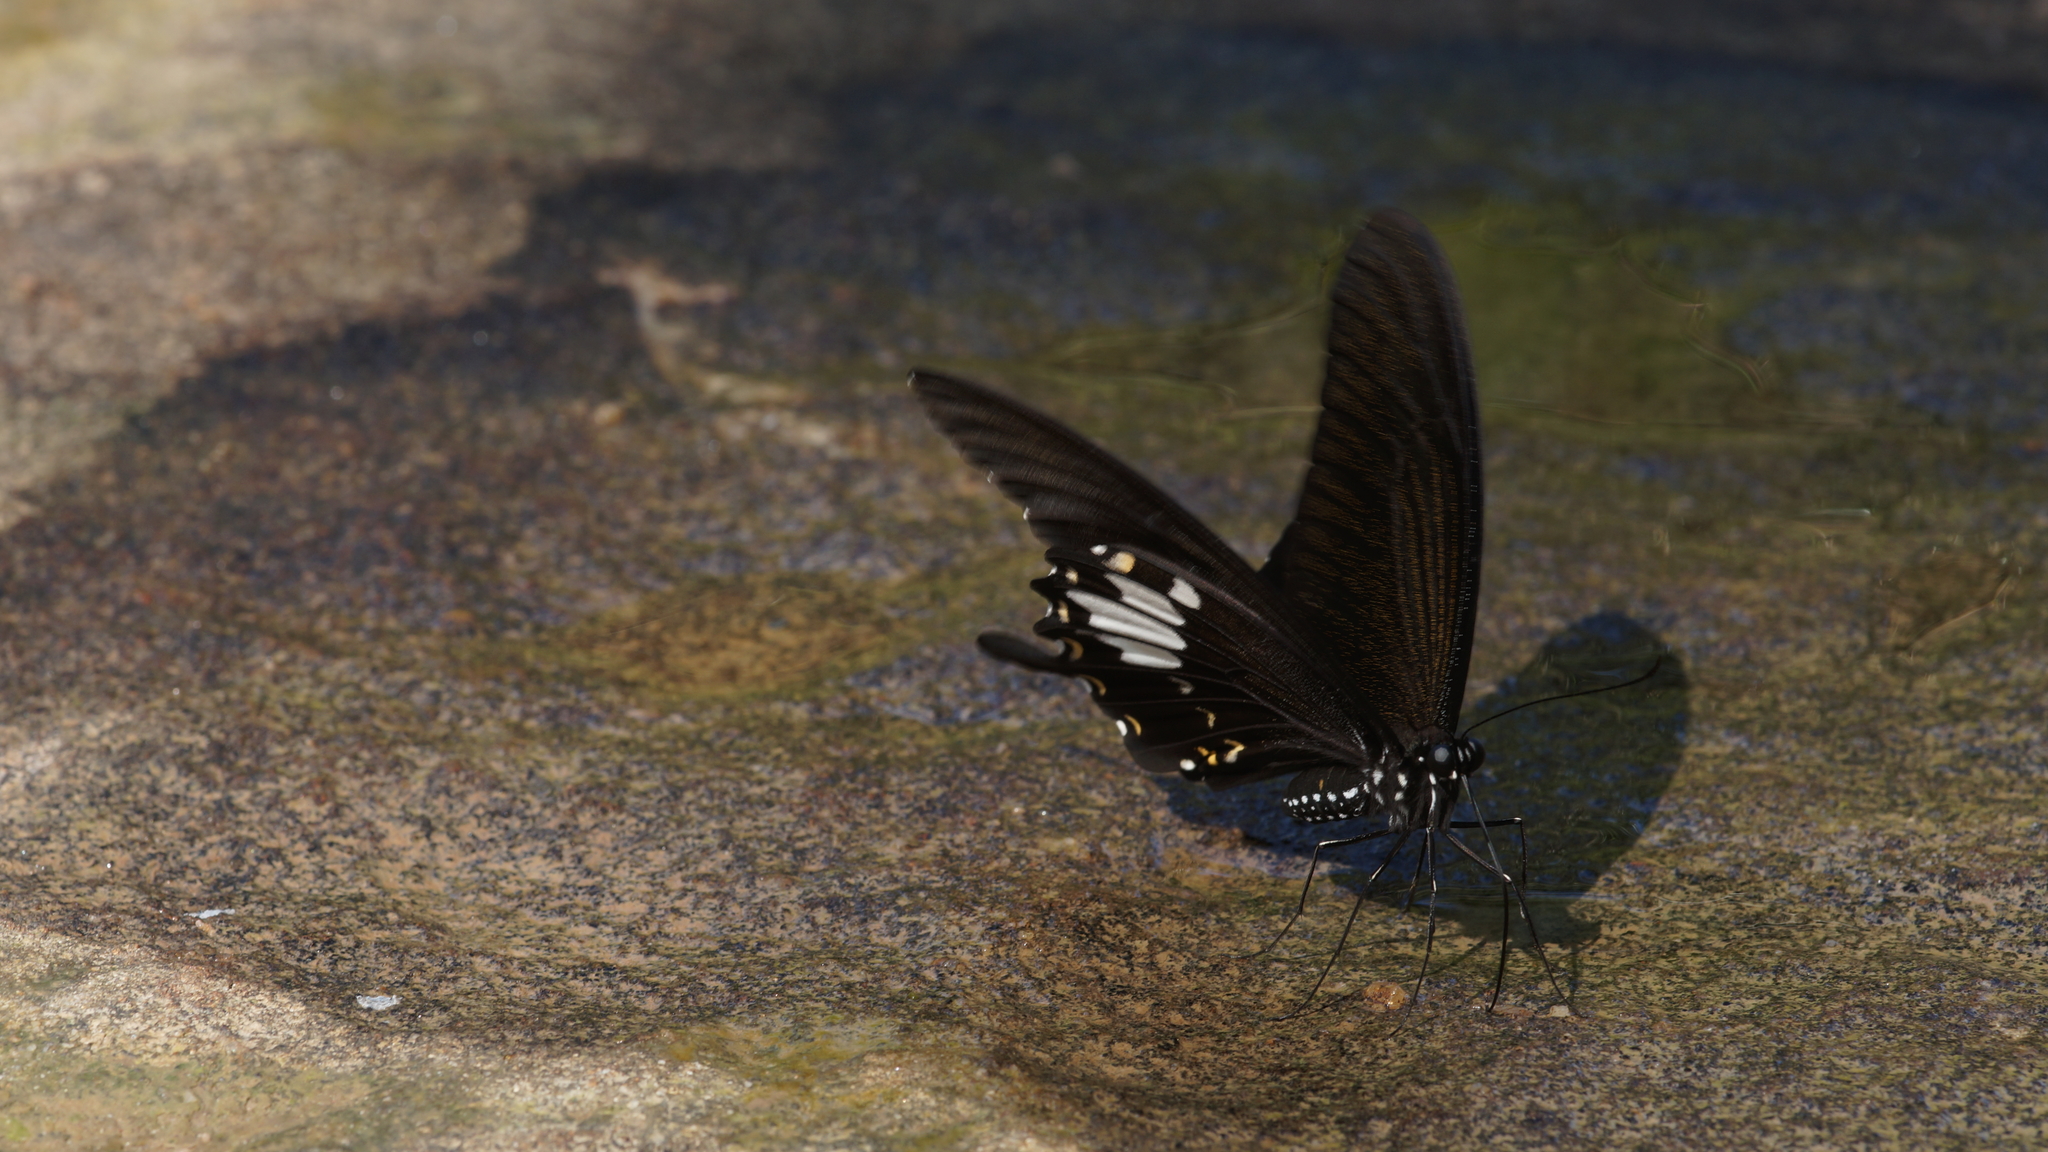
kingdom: Animalia
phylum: Arthropoda
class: Insecta
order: Lepidoptera
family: Papilionidae
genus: Atrophaneura
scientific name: Atrophaneura varuna
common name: Common batwing
